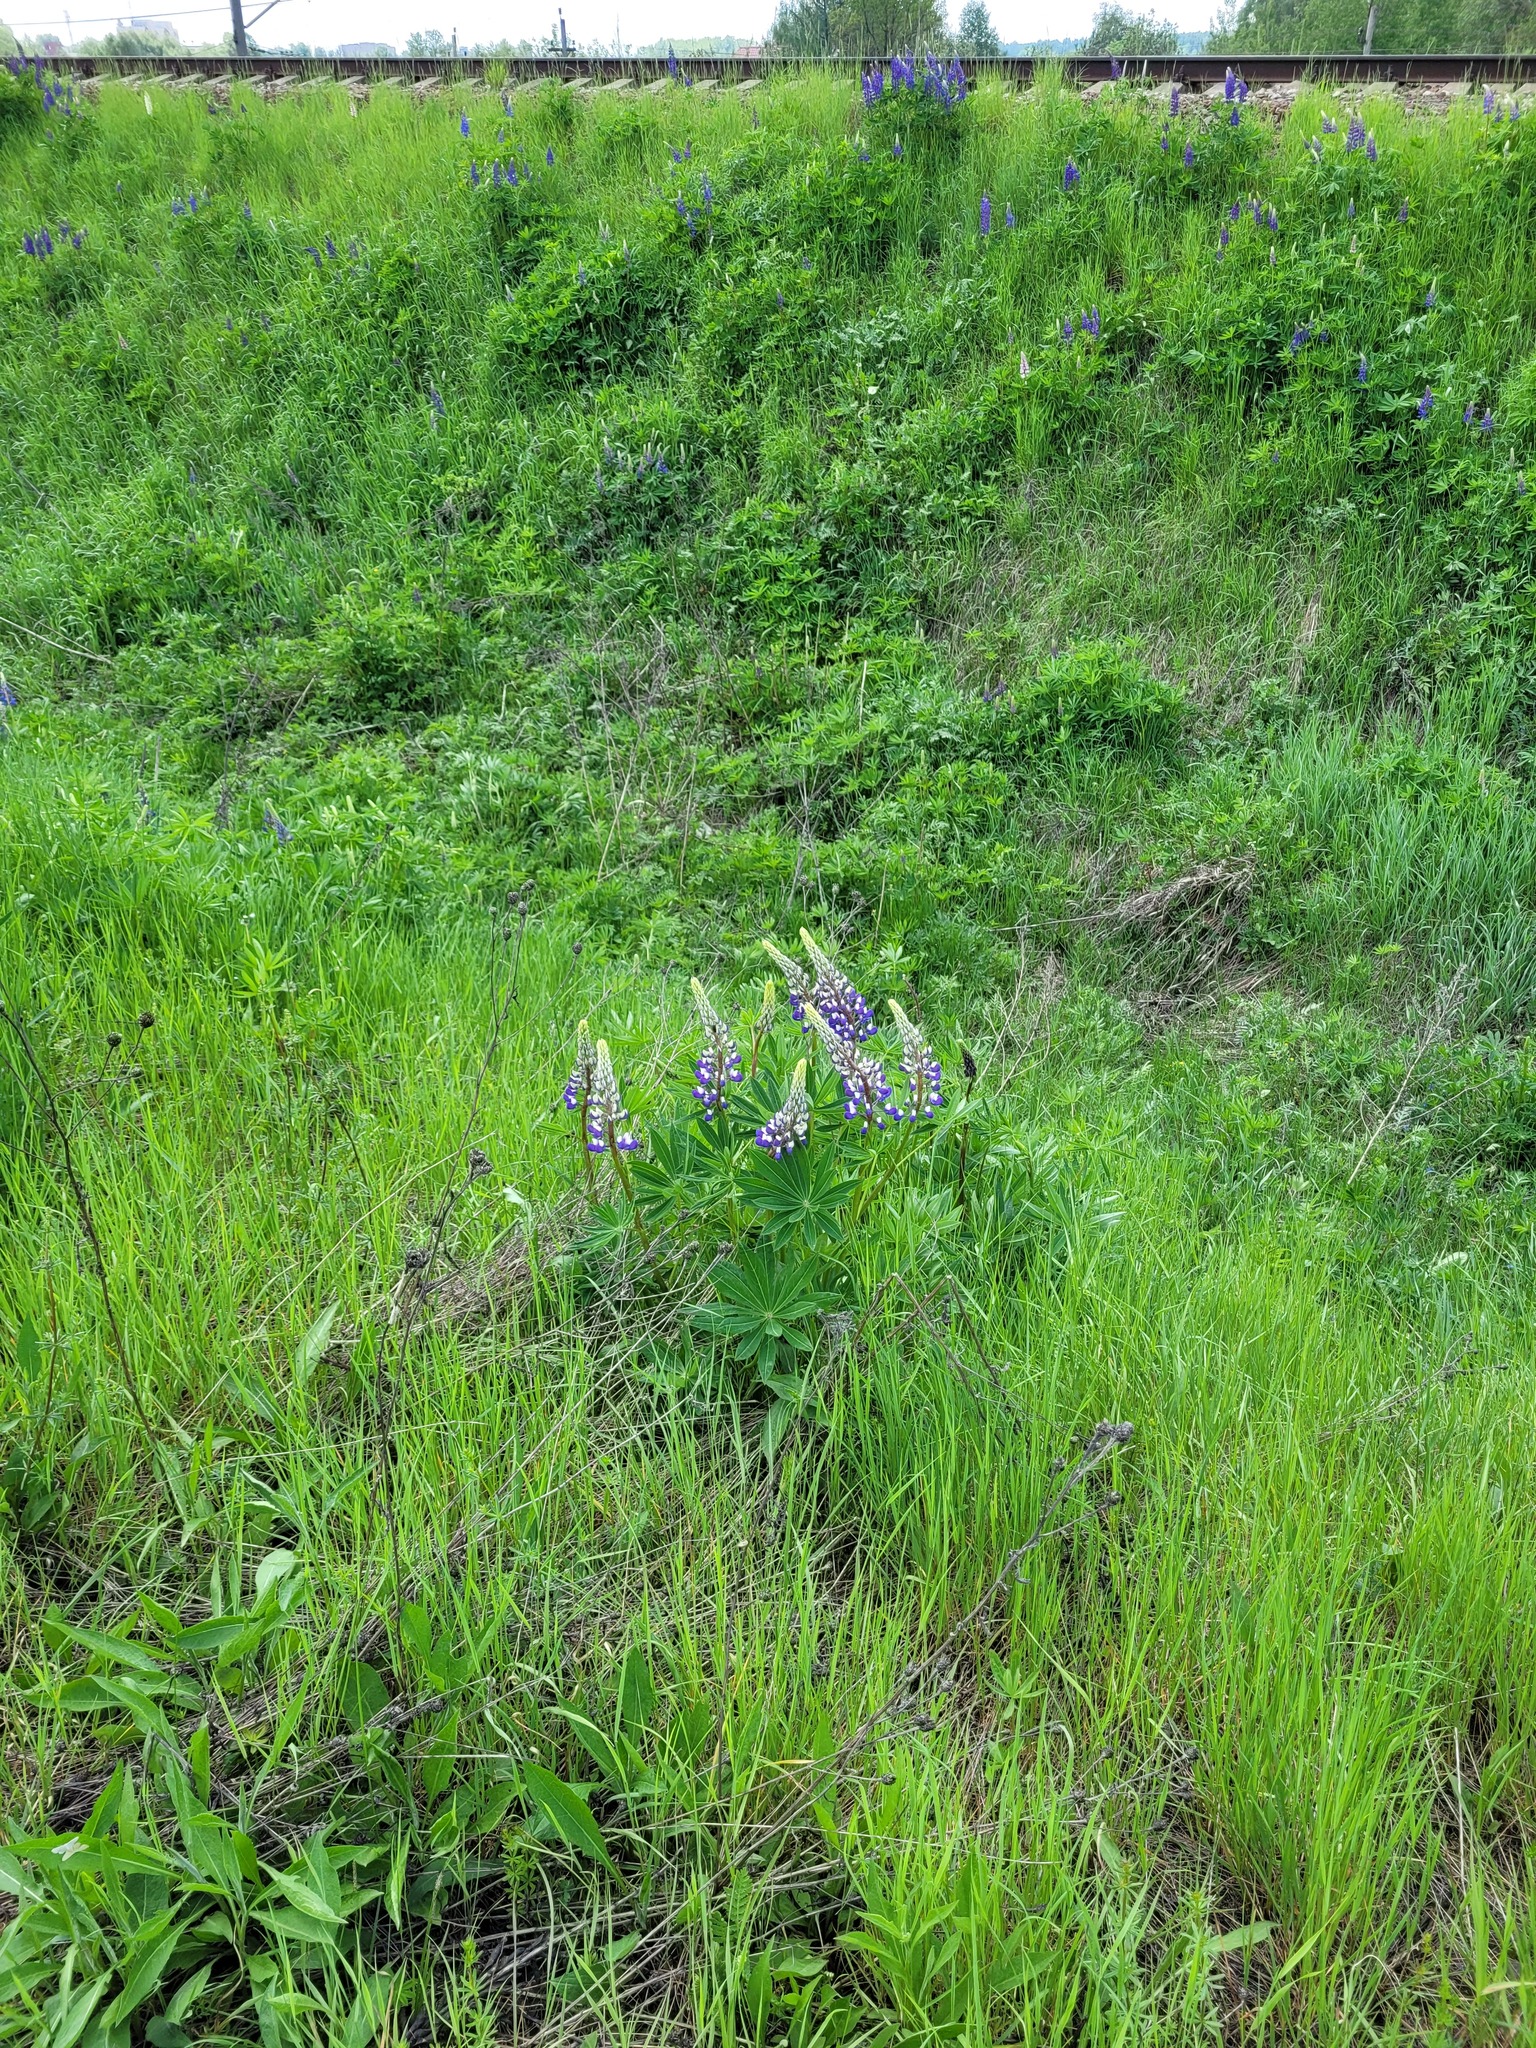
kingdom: Plantae
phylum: Tracheophyta
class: Magnoliopsida
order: Fabales
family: Fabaceae
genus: Lupinus
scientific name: Lupinus polyphyllus
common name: Garden lupin
